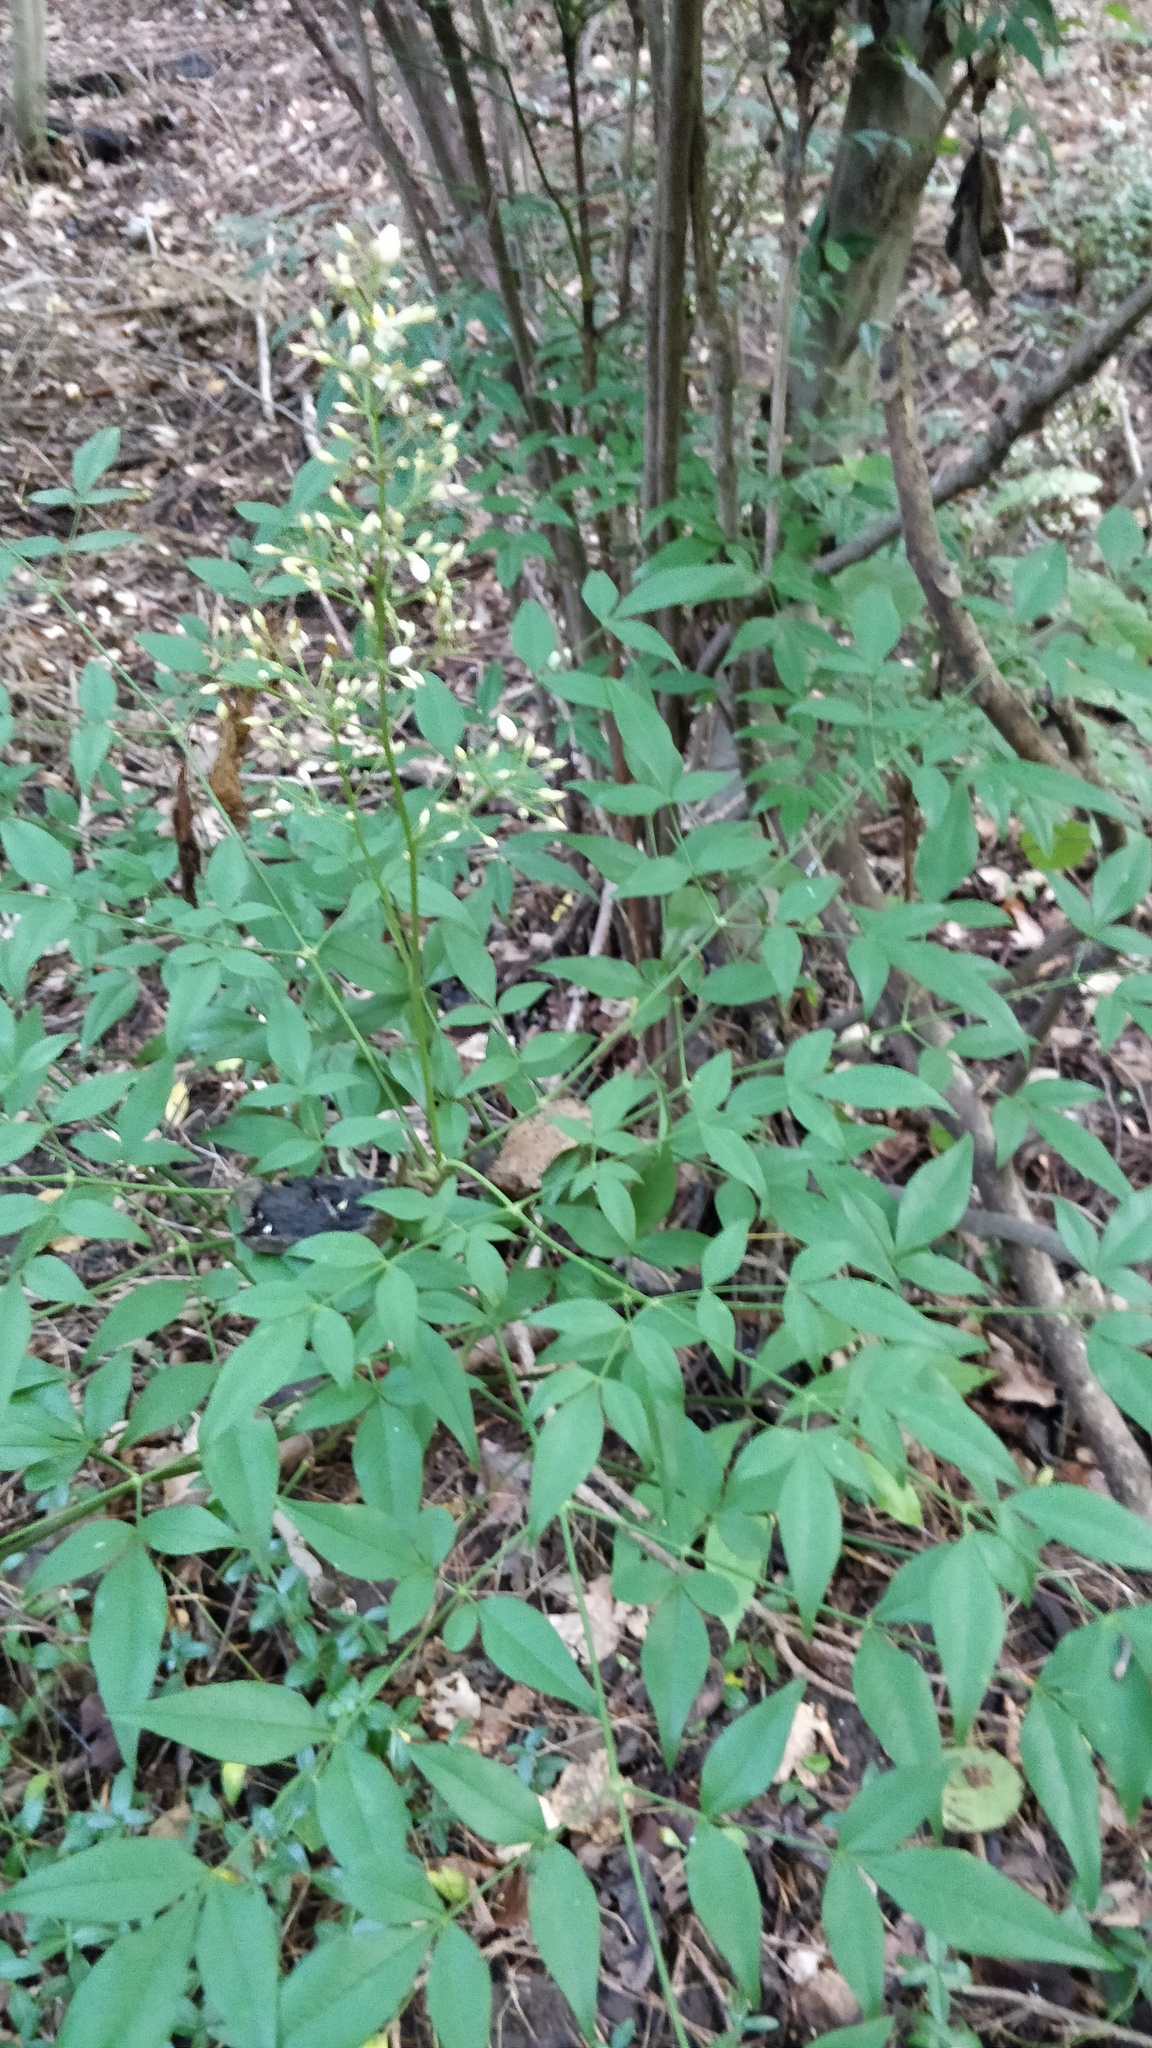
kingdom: Plantae
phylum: Tracheophyta
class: Magnoliopsida
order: Ranunculales
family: Berberidaceae
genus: Nandina
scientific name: Nandina domestica
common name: Sacred bamboo
